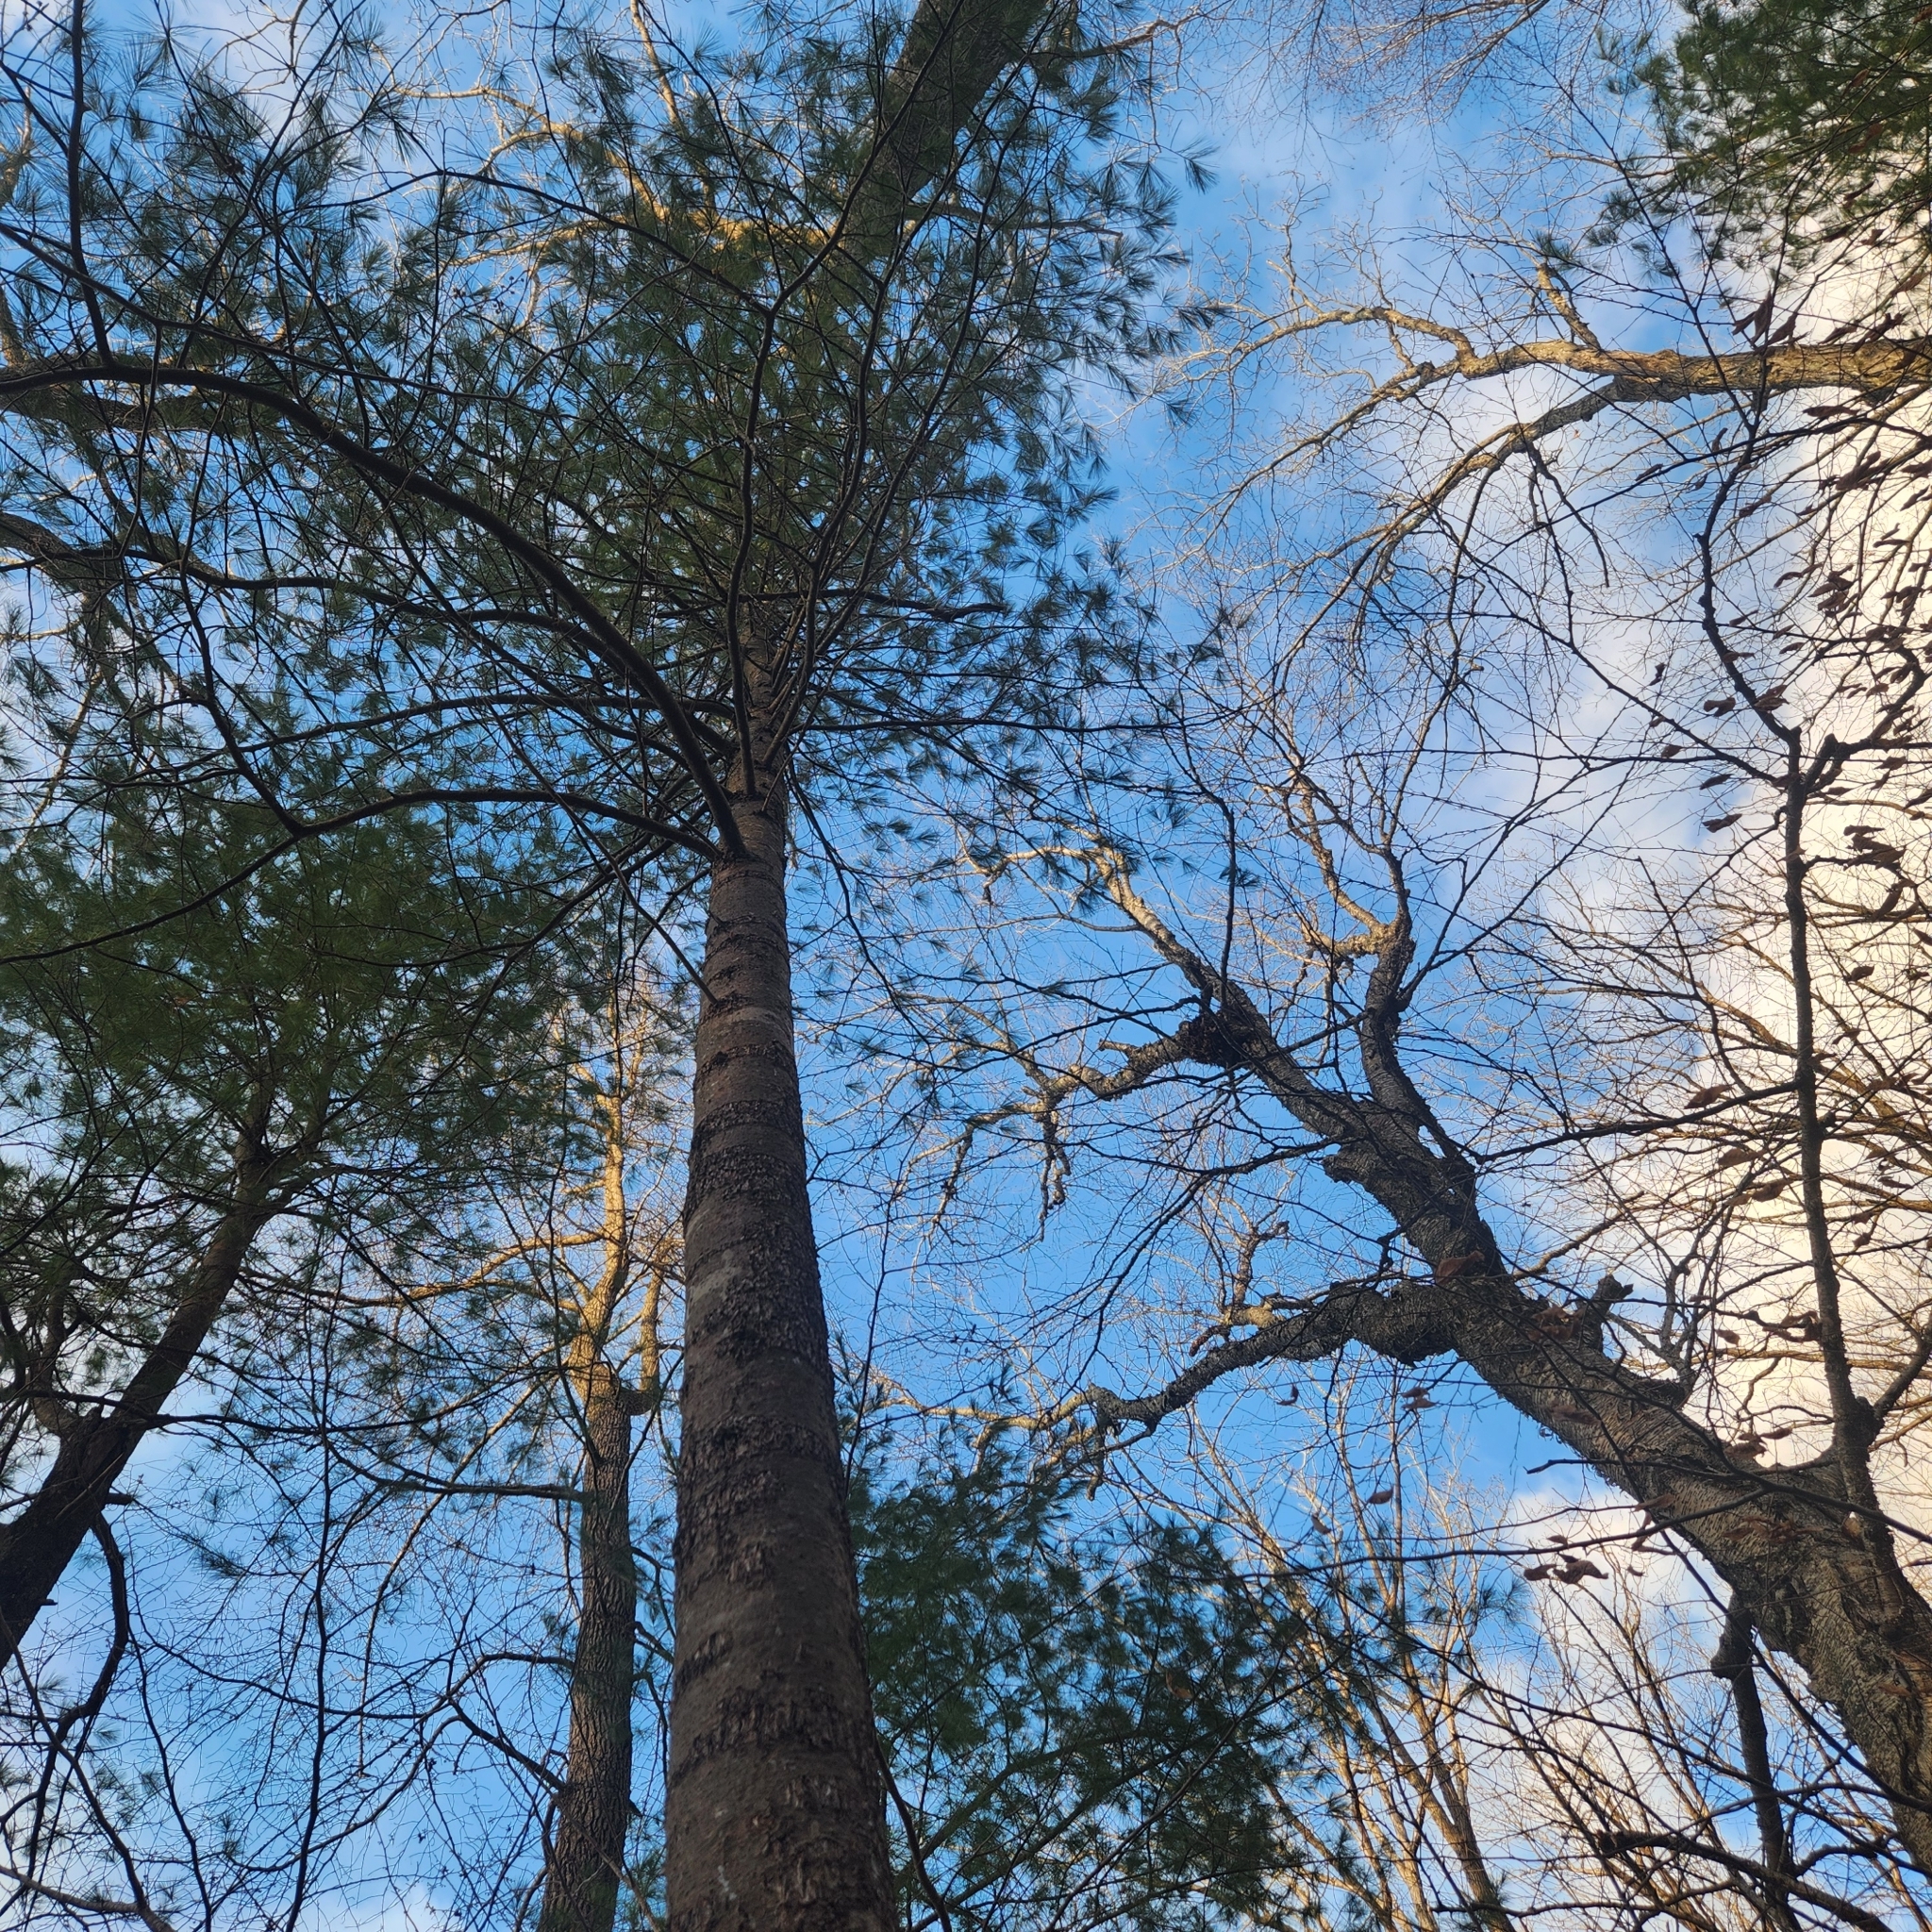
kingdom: Plantae
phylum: Tracheophyta
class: Pinopsida
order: Pinales
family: Pinaceae
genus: Pinus
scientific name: Pinus strobus
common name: Weymouth pine
